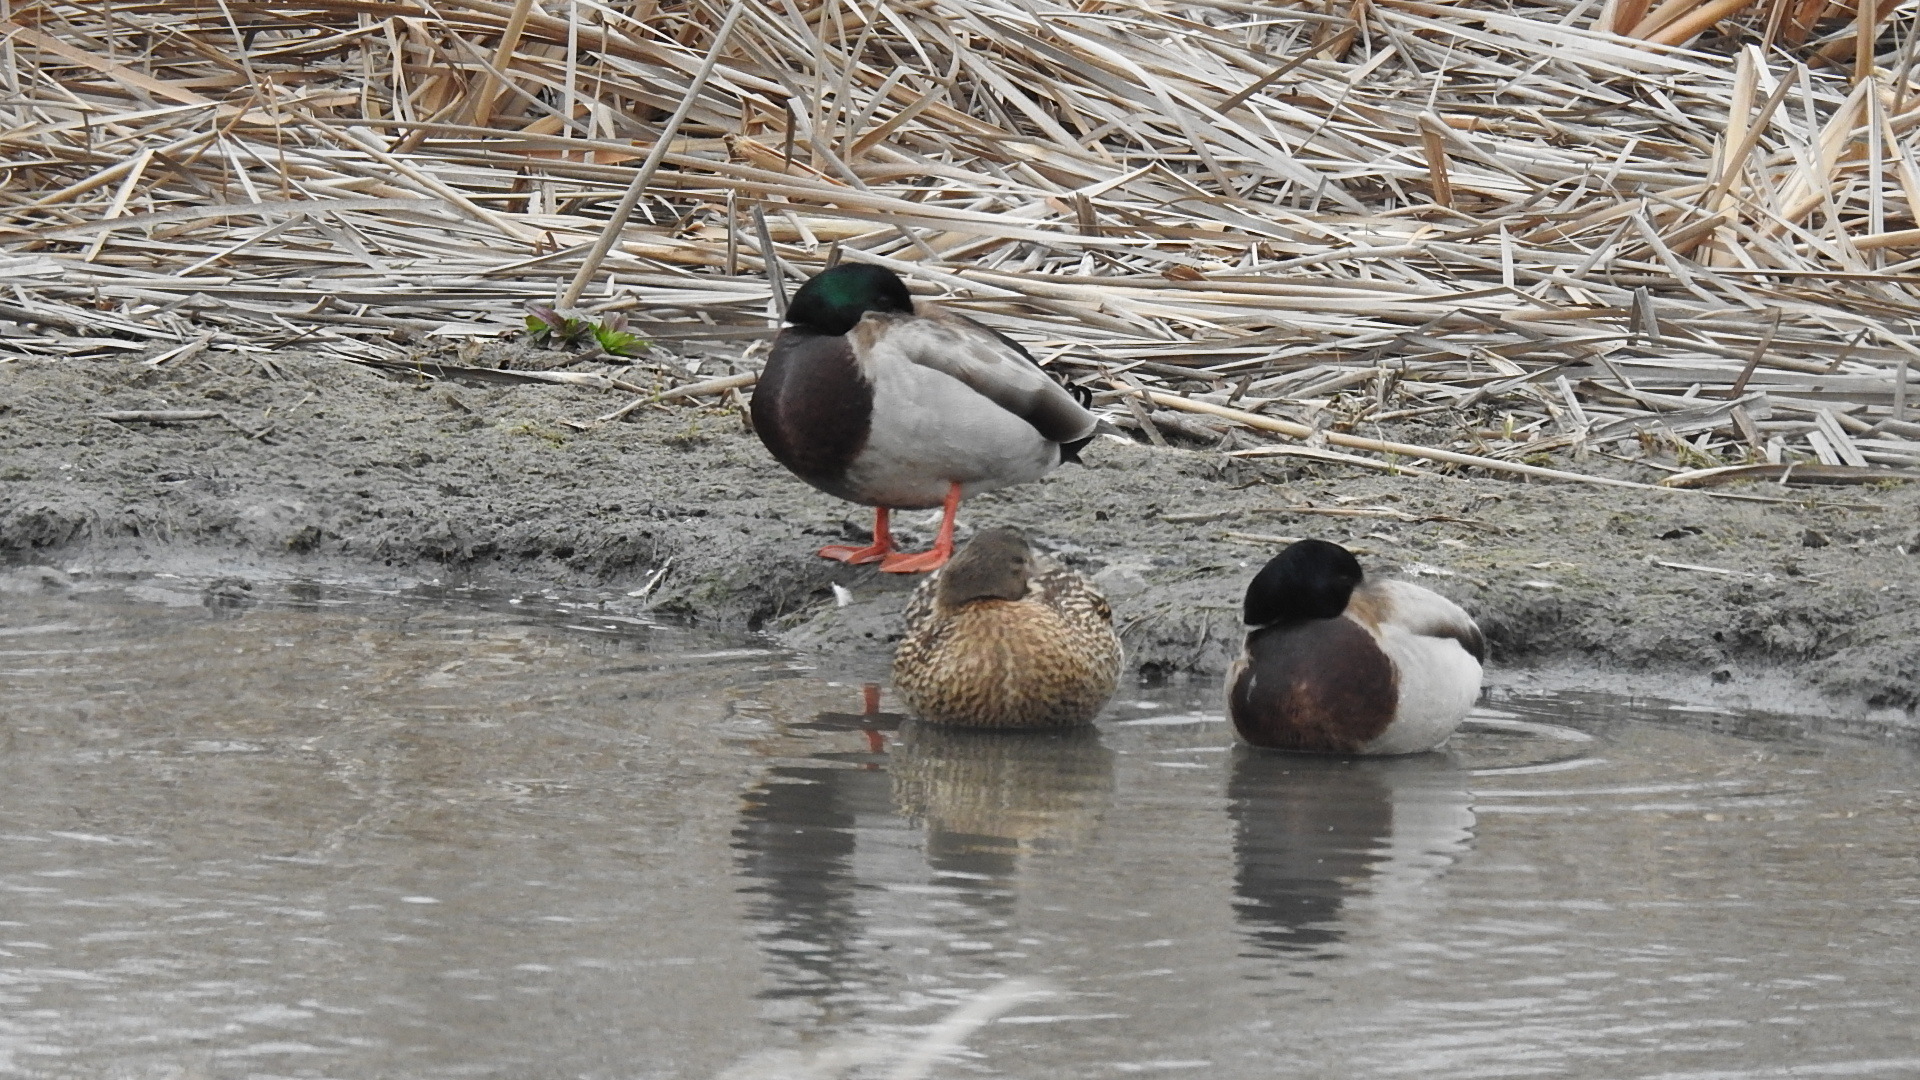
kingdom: Animalia
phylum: Chordata
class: Aves
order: Anseriformes
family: Anatidae
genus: Anas
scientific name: Anas platyrhynchos
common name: Mallard
